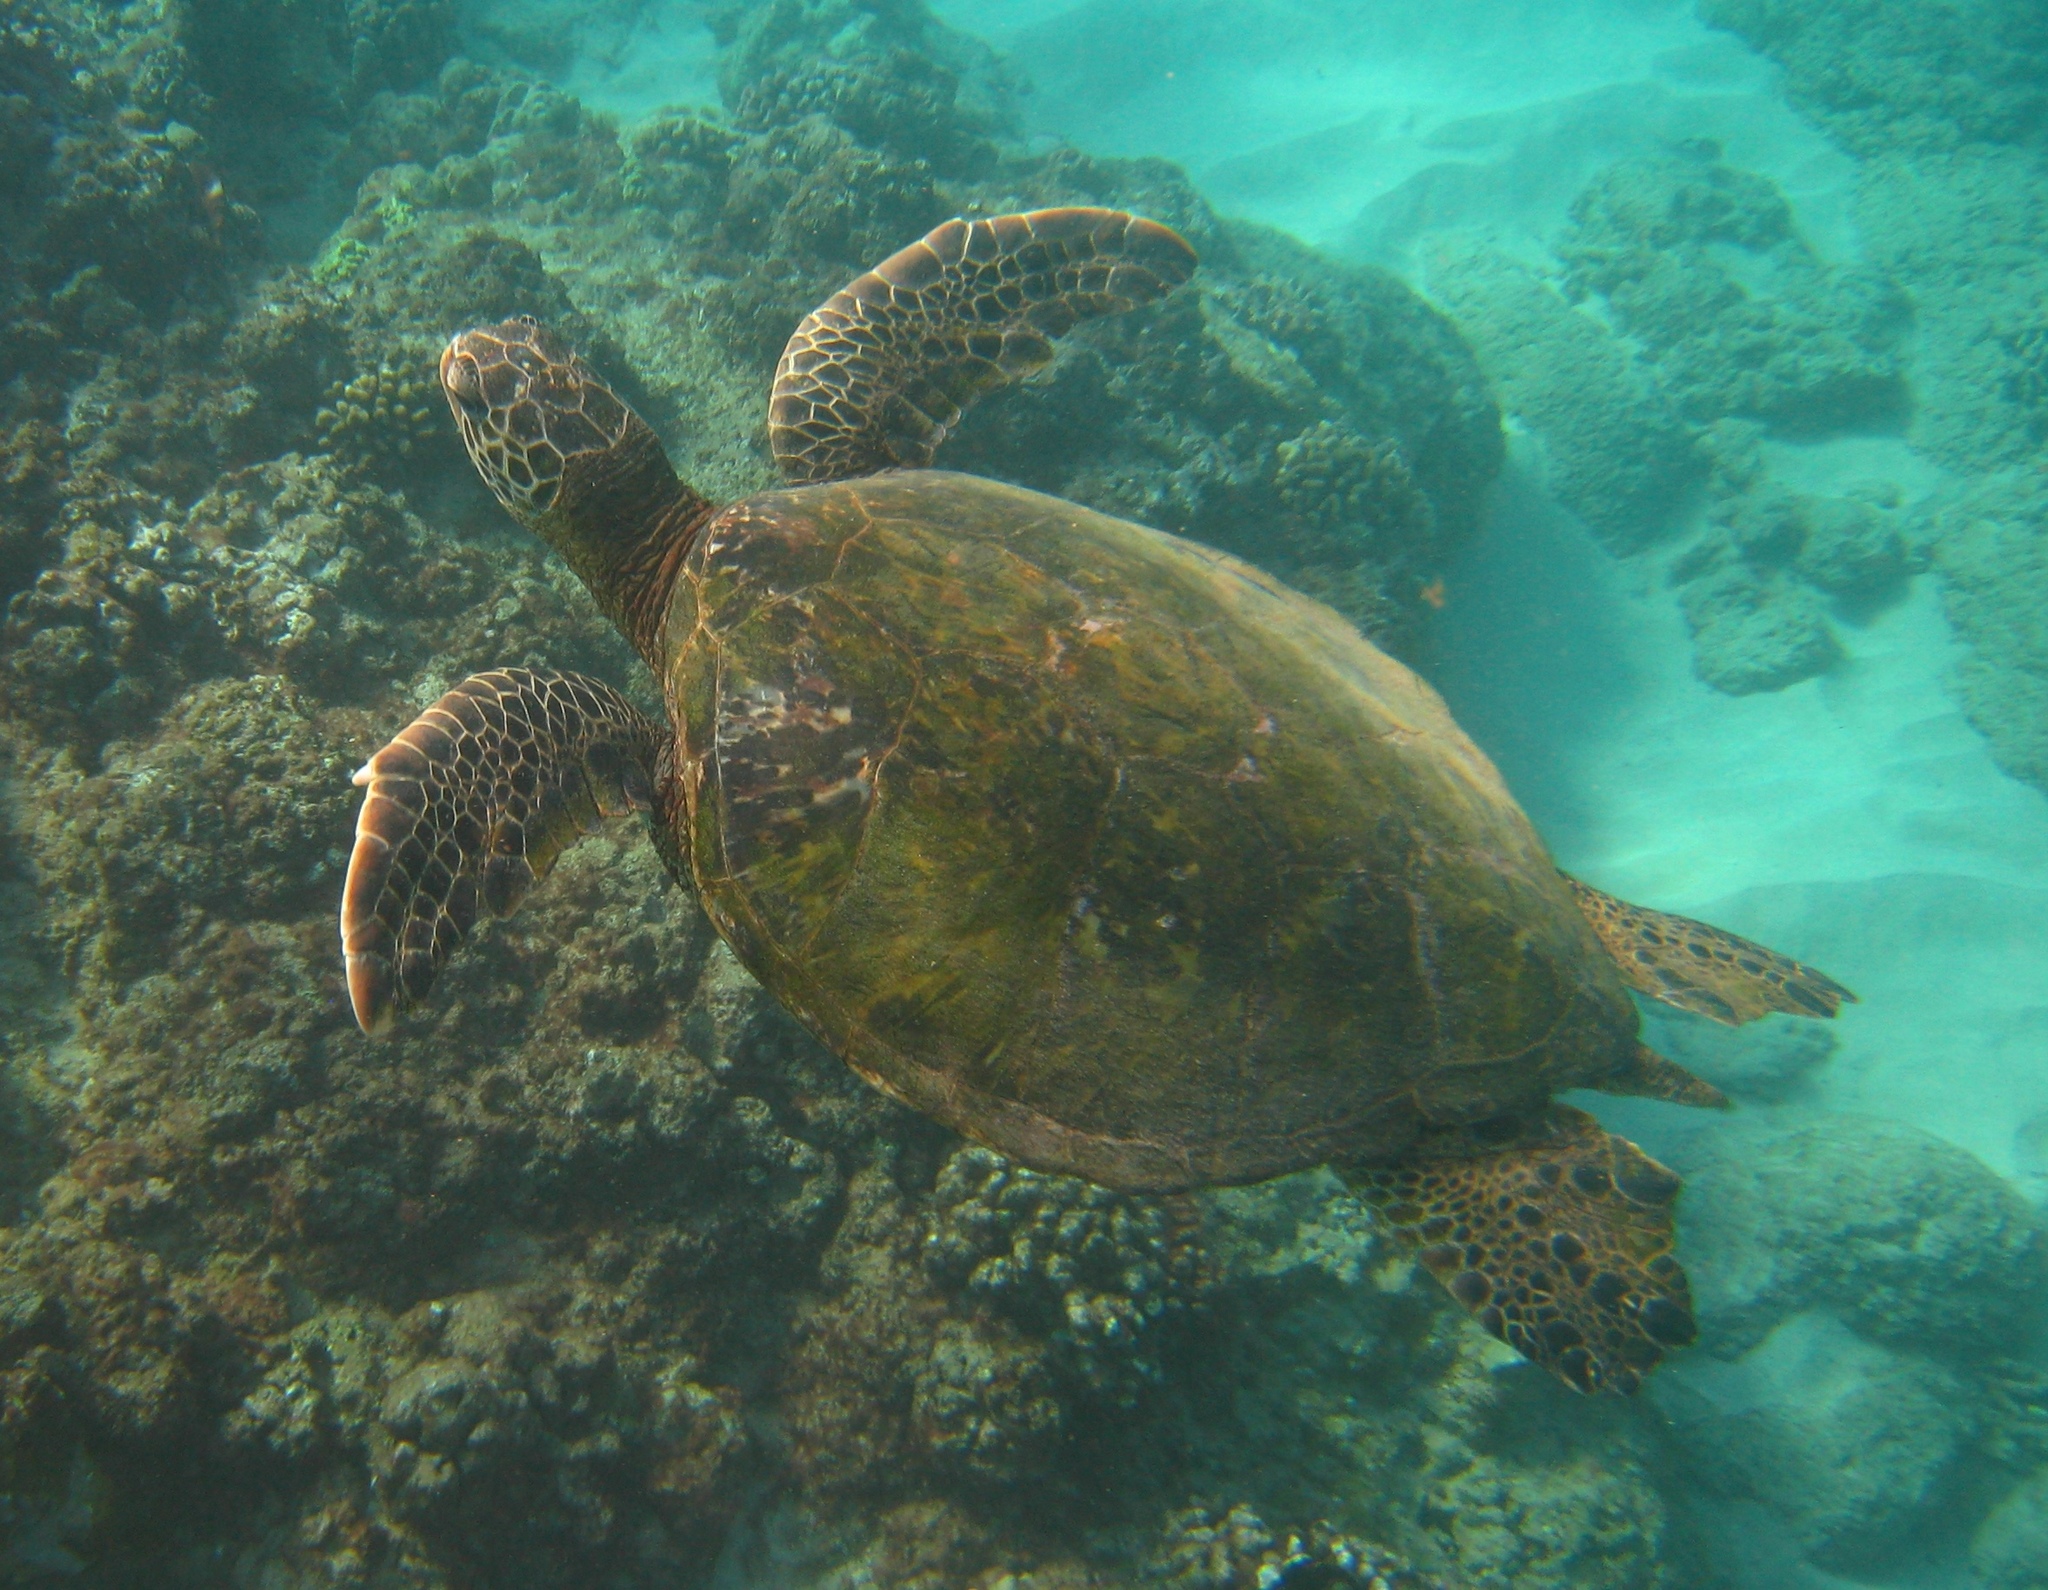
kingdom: Animalia
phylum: Chordata
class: Testudines
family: Cheloniidae
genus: Chelonia
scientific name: Chelonia mydas
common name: Green turtle
